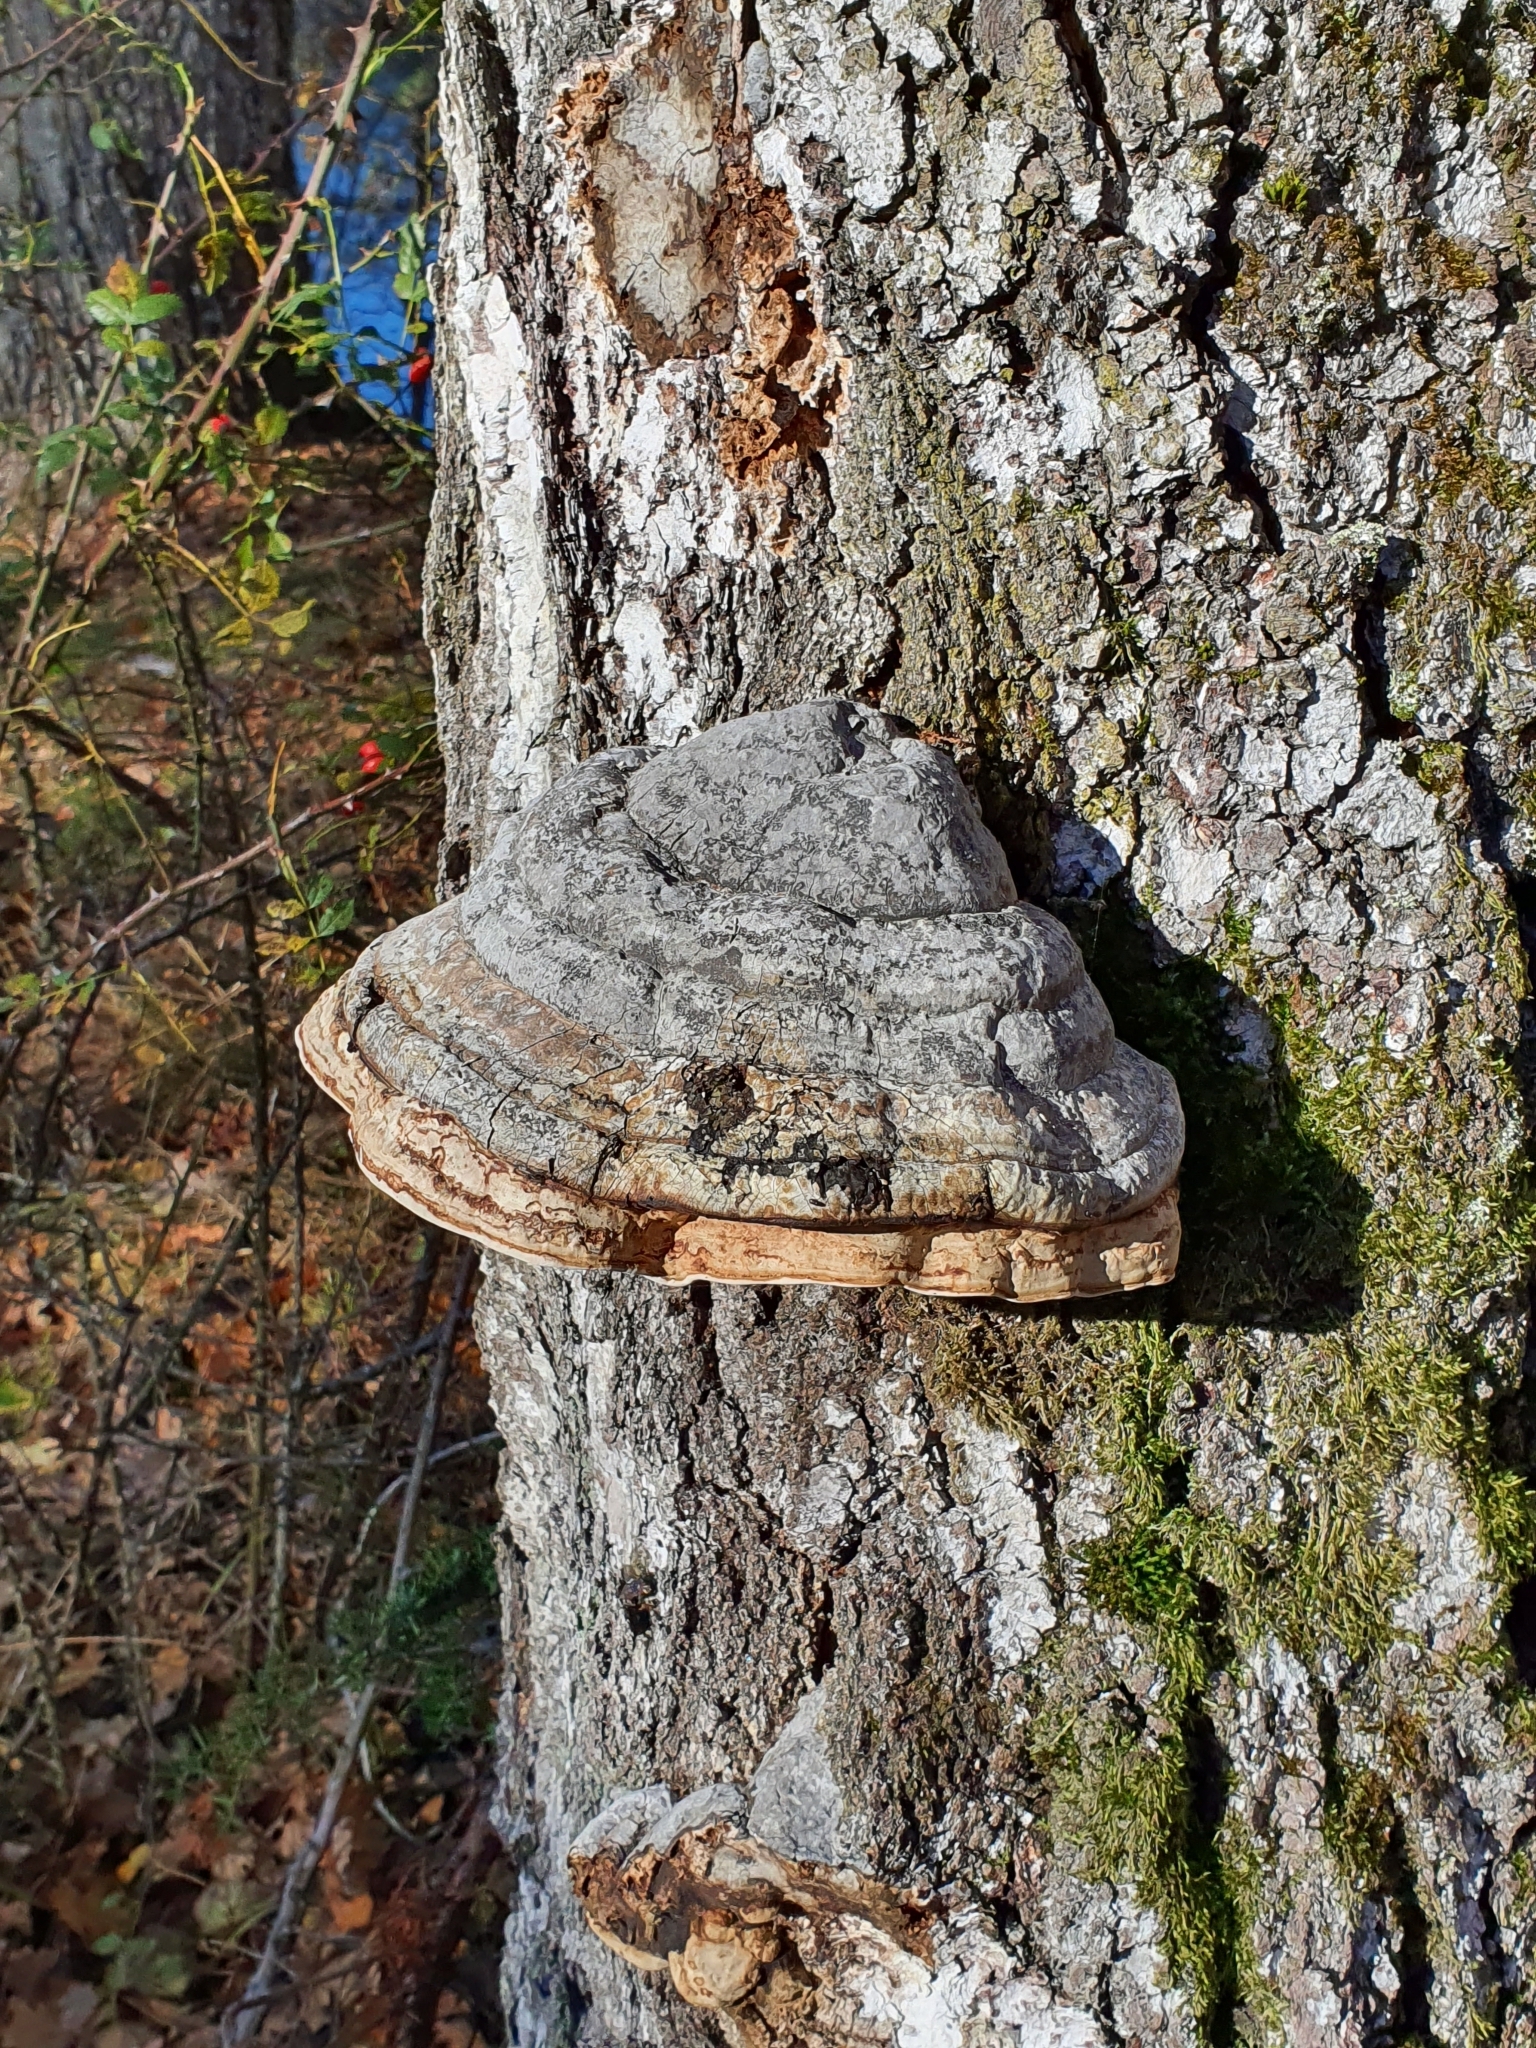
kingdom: Fungi
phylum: Basidiomycota
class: Agaricomycetes
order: Polyporales
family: Polyporaceae
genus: Fomes
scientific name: Fomes fomentarius
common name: Hoof fungus
